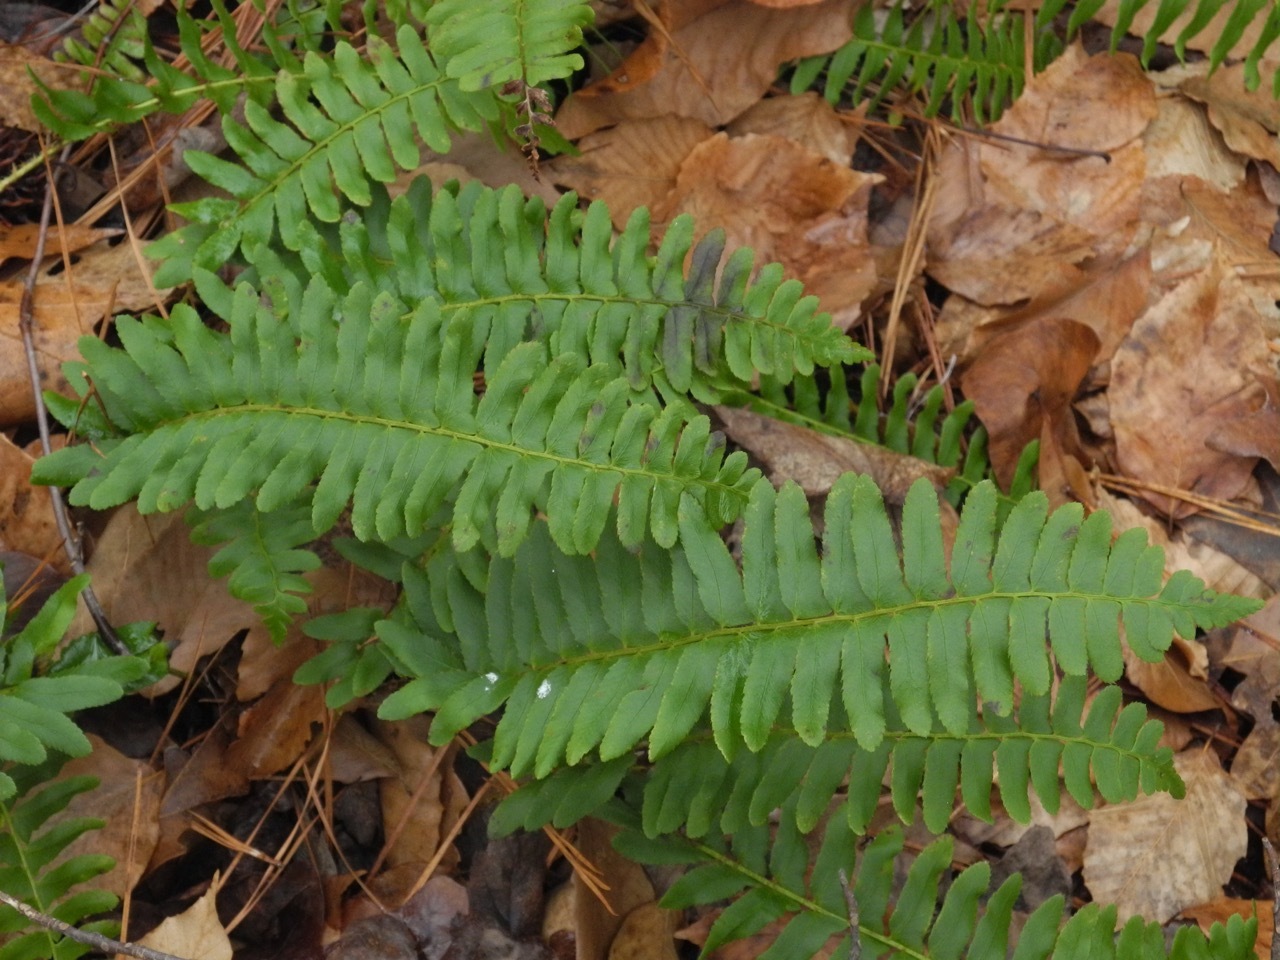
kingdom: Plantae
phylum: Tracheophyta
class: Polypodiopsida
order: Polypodiales
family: Dryopteridaceae
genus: Polystichum
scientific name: Polystichum acrostichoides
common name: Christmas fern
